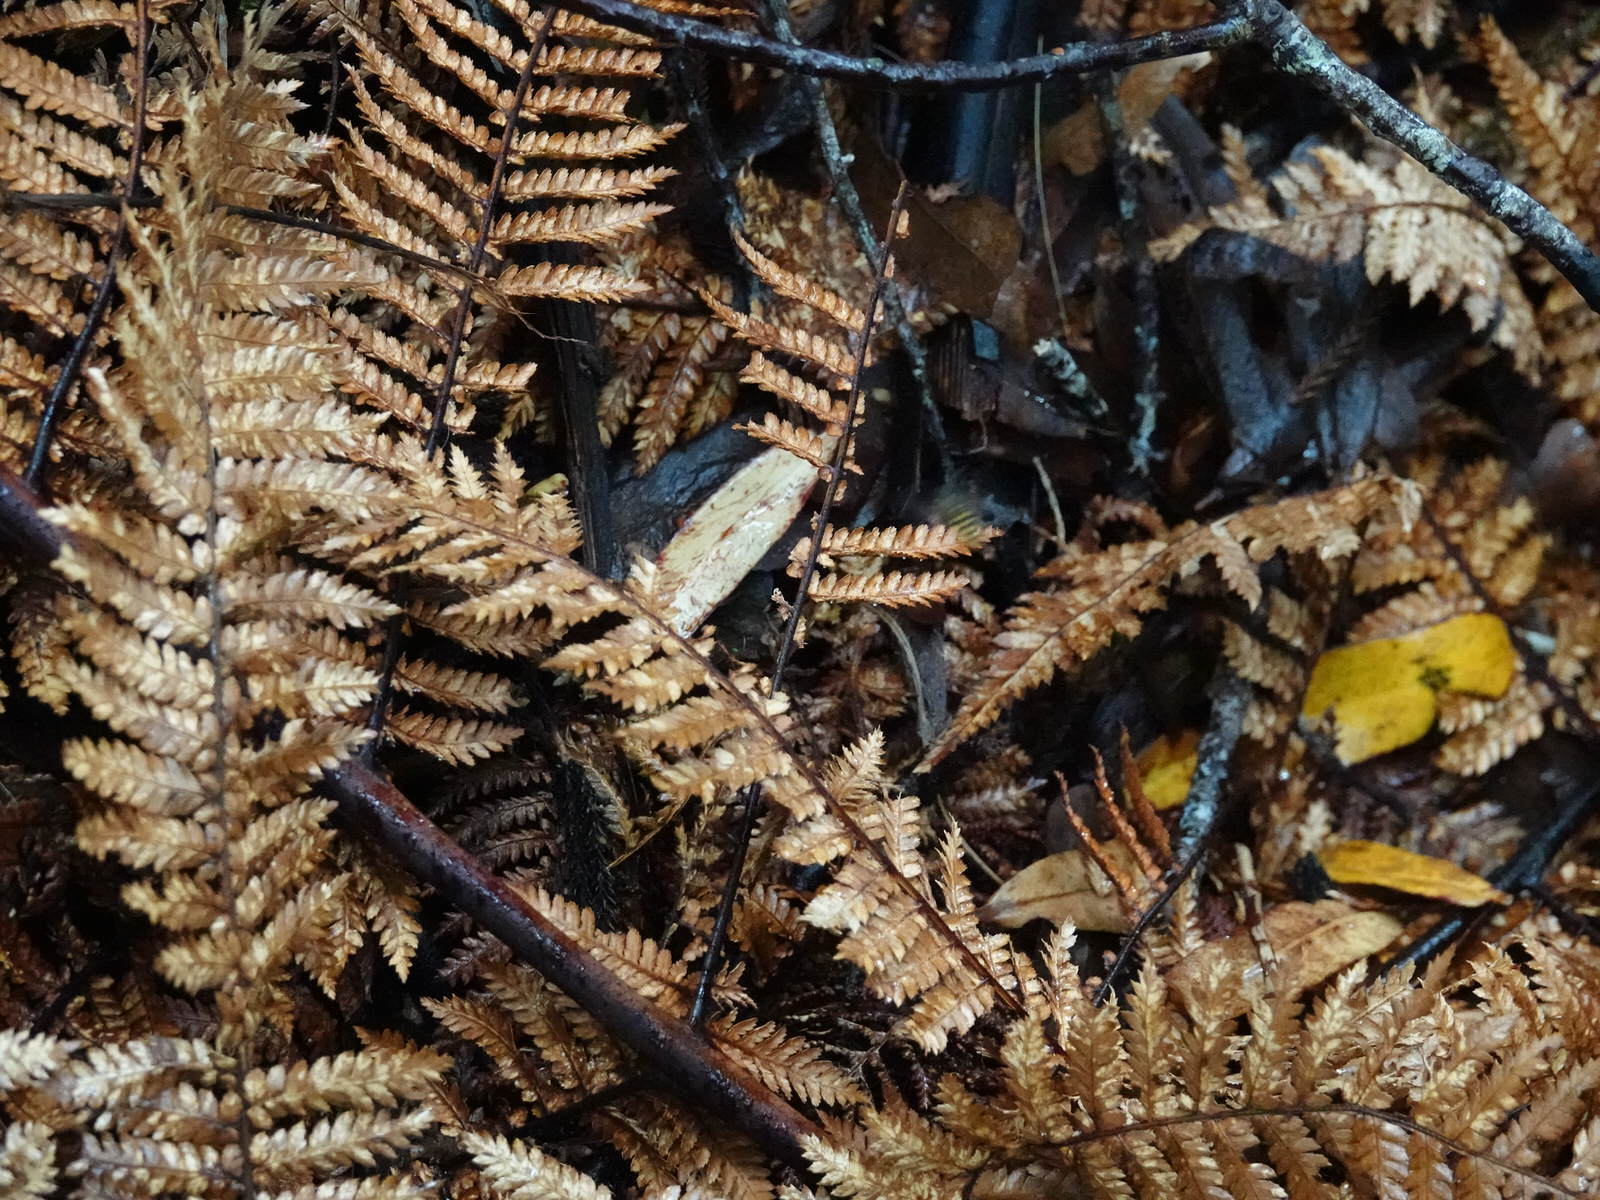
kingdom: Animalia
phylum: Arthropoda
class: Insecta
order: Hymenoptera
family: Vespidae
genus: Vespula
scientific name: Vespula
